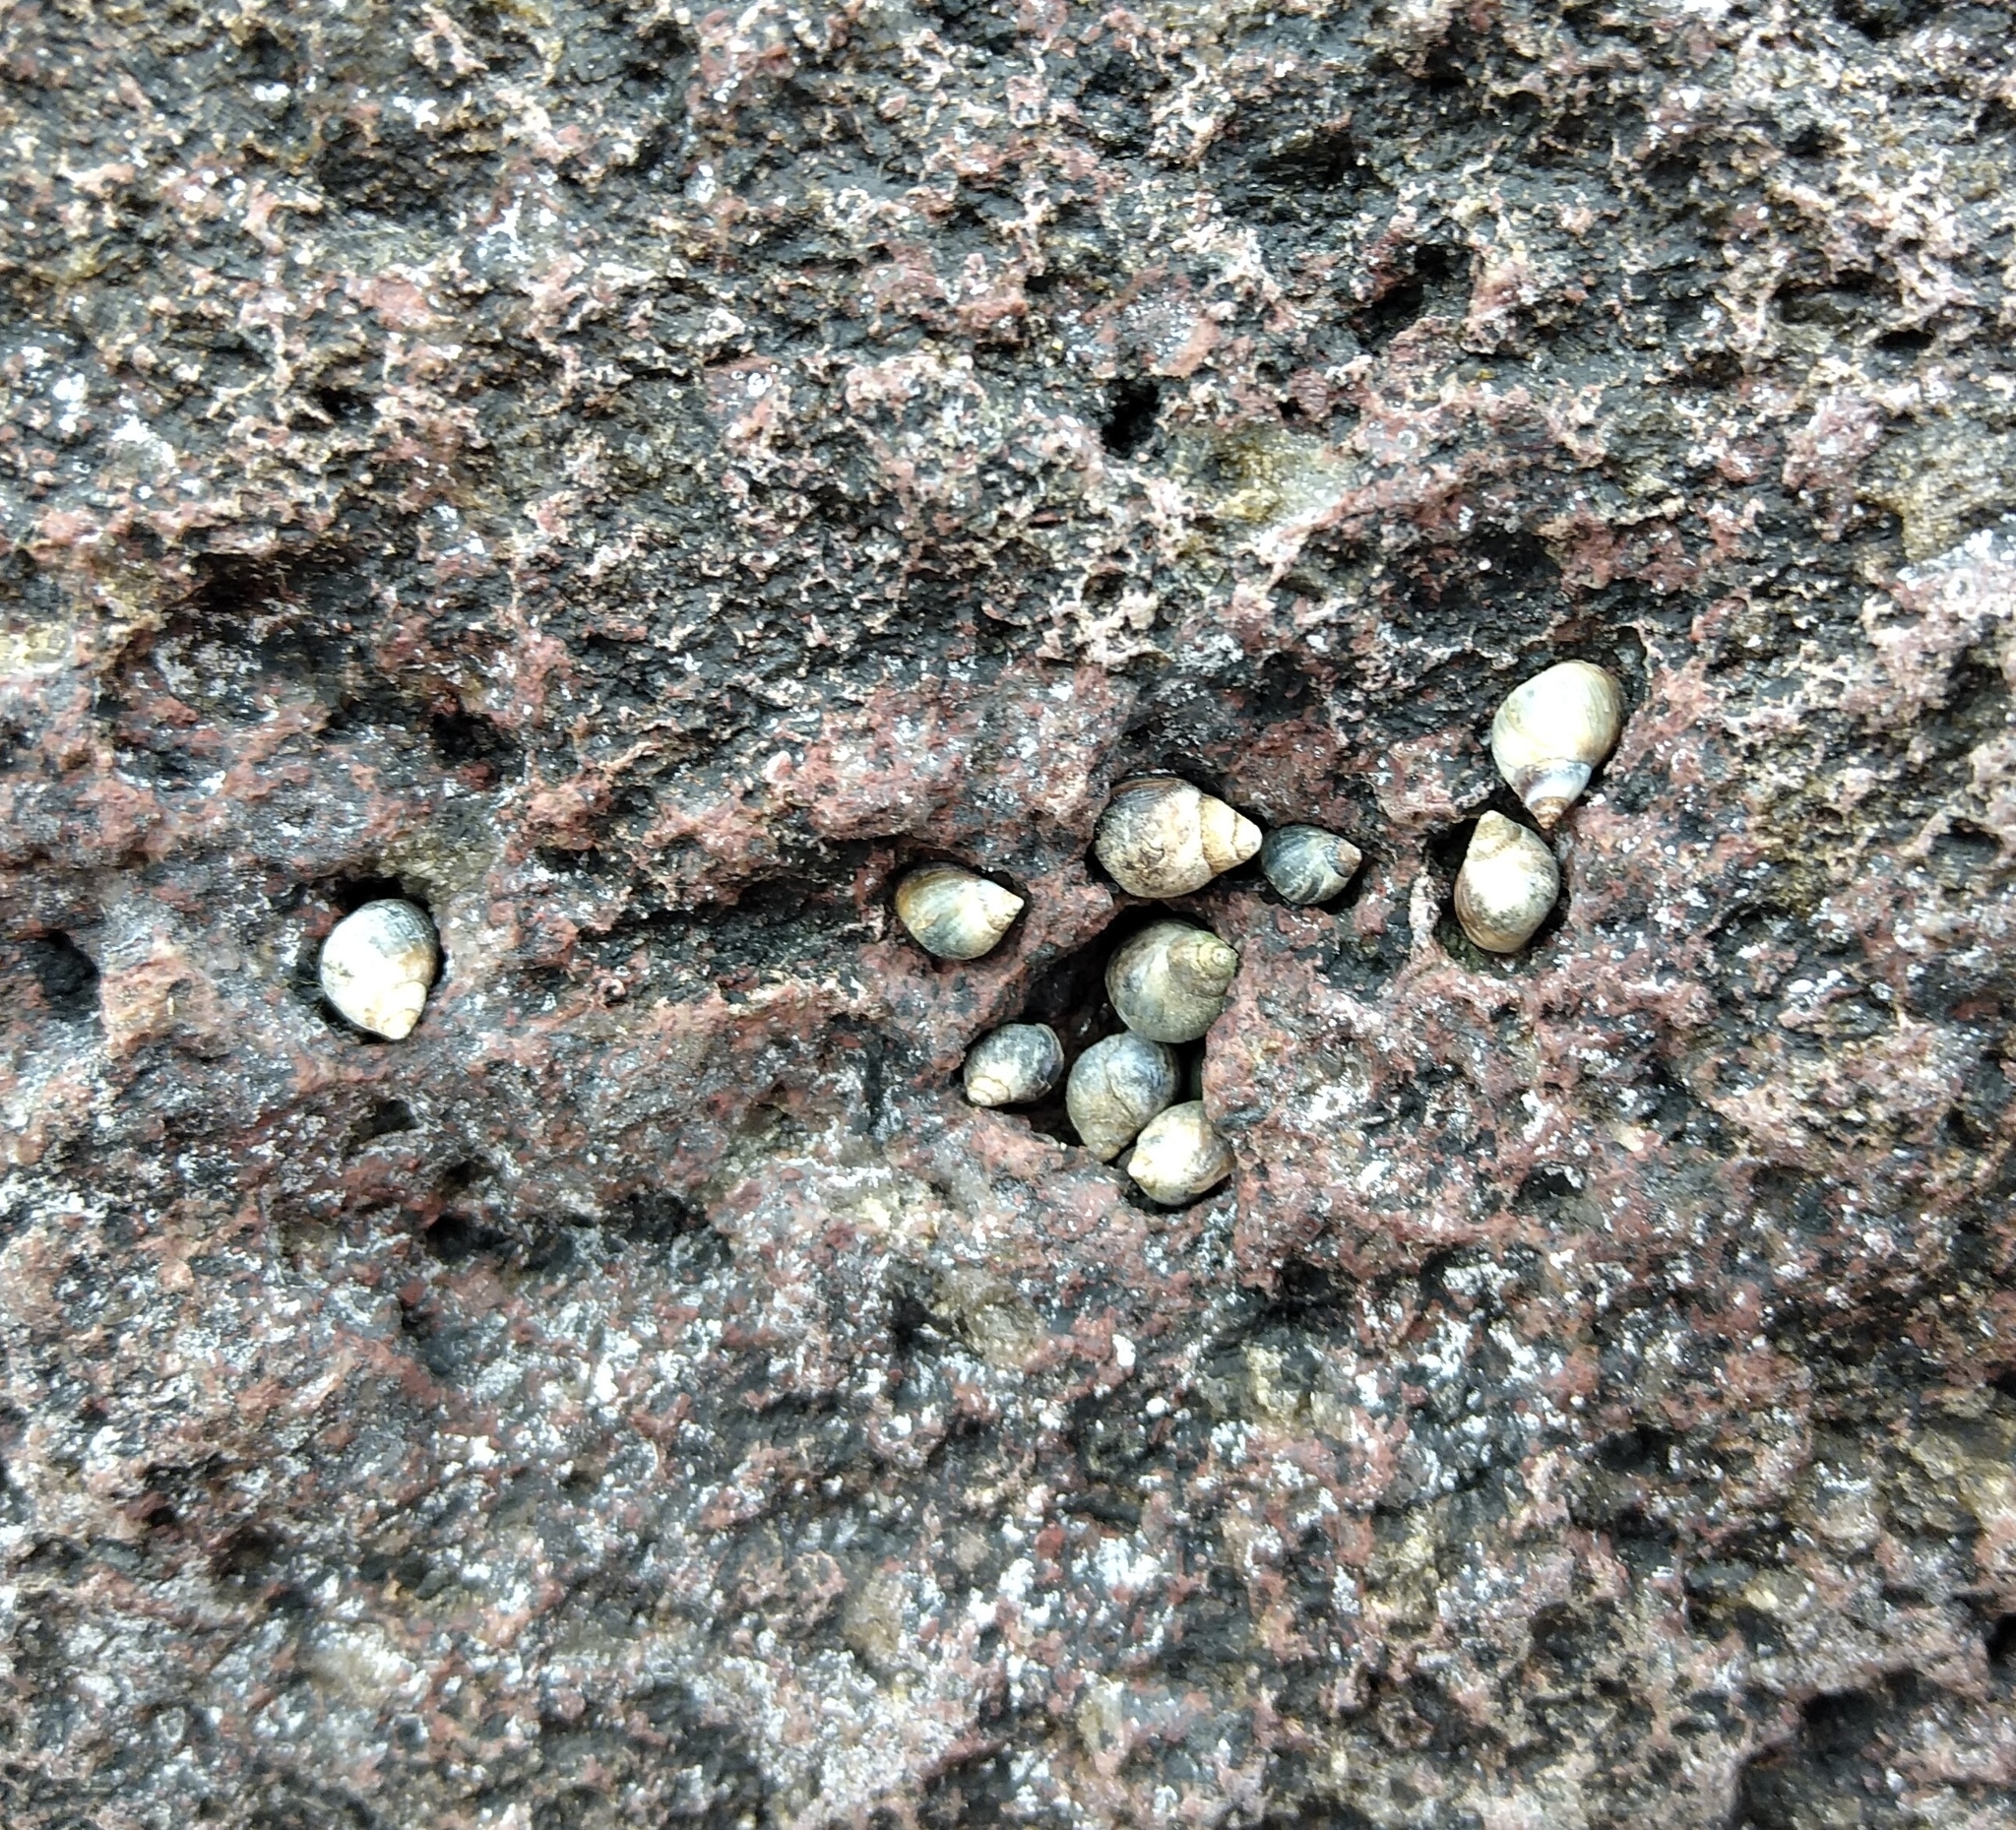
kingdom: Animalia
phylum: Mollusca
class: Gastropoda
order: Littorinimorpha
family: Littorinidae
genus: Melarhaphe
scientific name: Melarhaphe neritoides
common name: Small periwinkle
